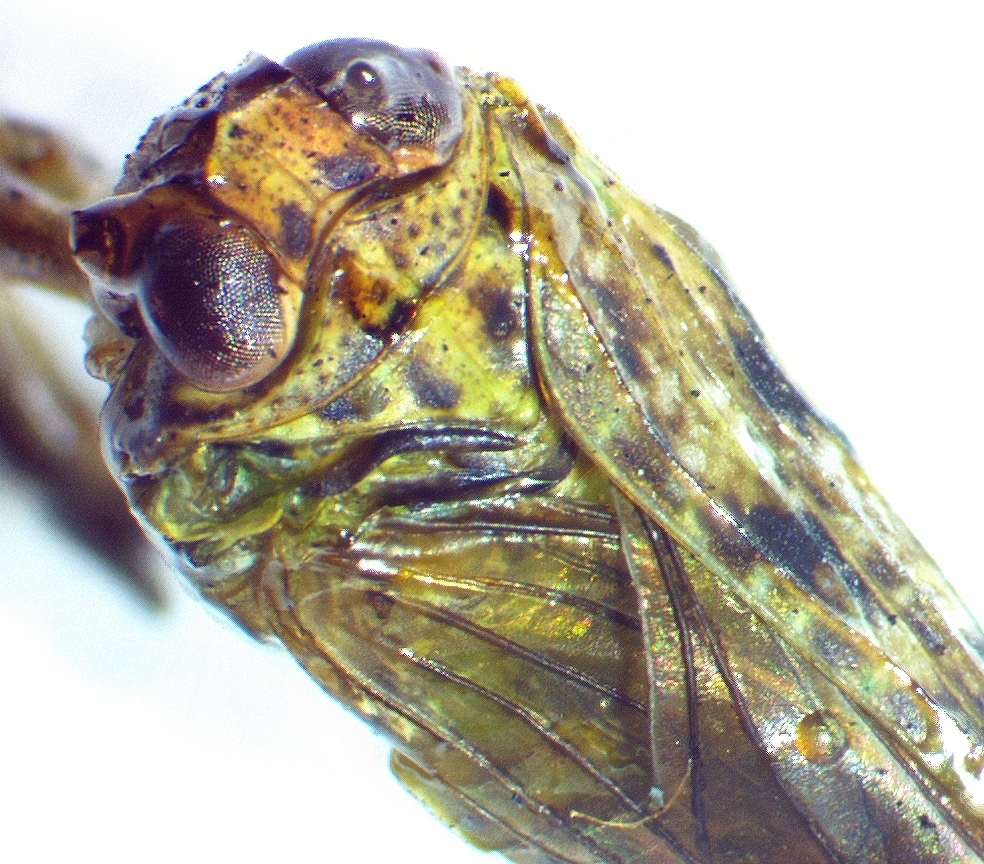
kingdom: Animalia
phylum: Arthropoda
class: Insecta
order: Hemiptera
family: Issidae
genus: Thionia
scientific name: Thionia bullata
